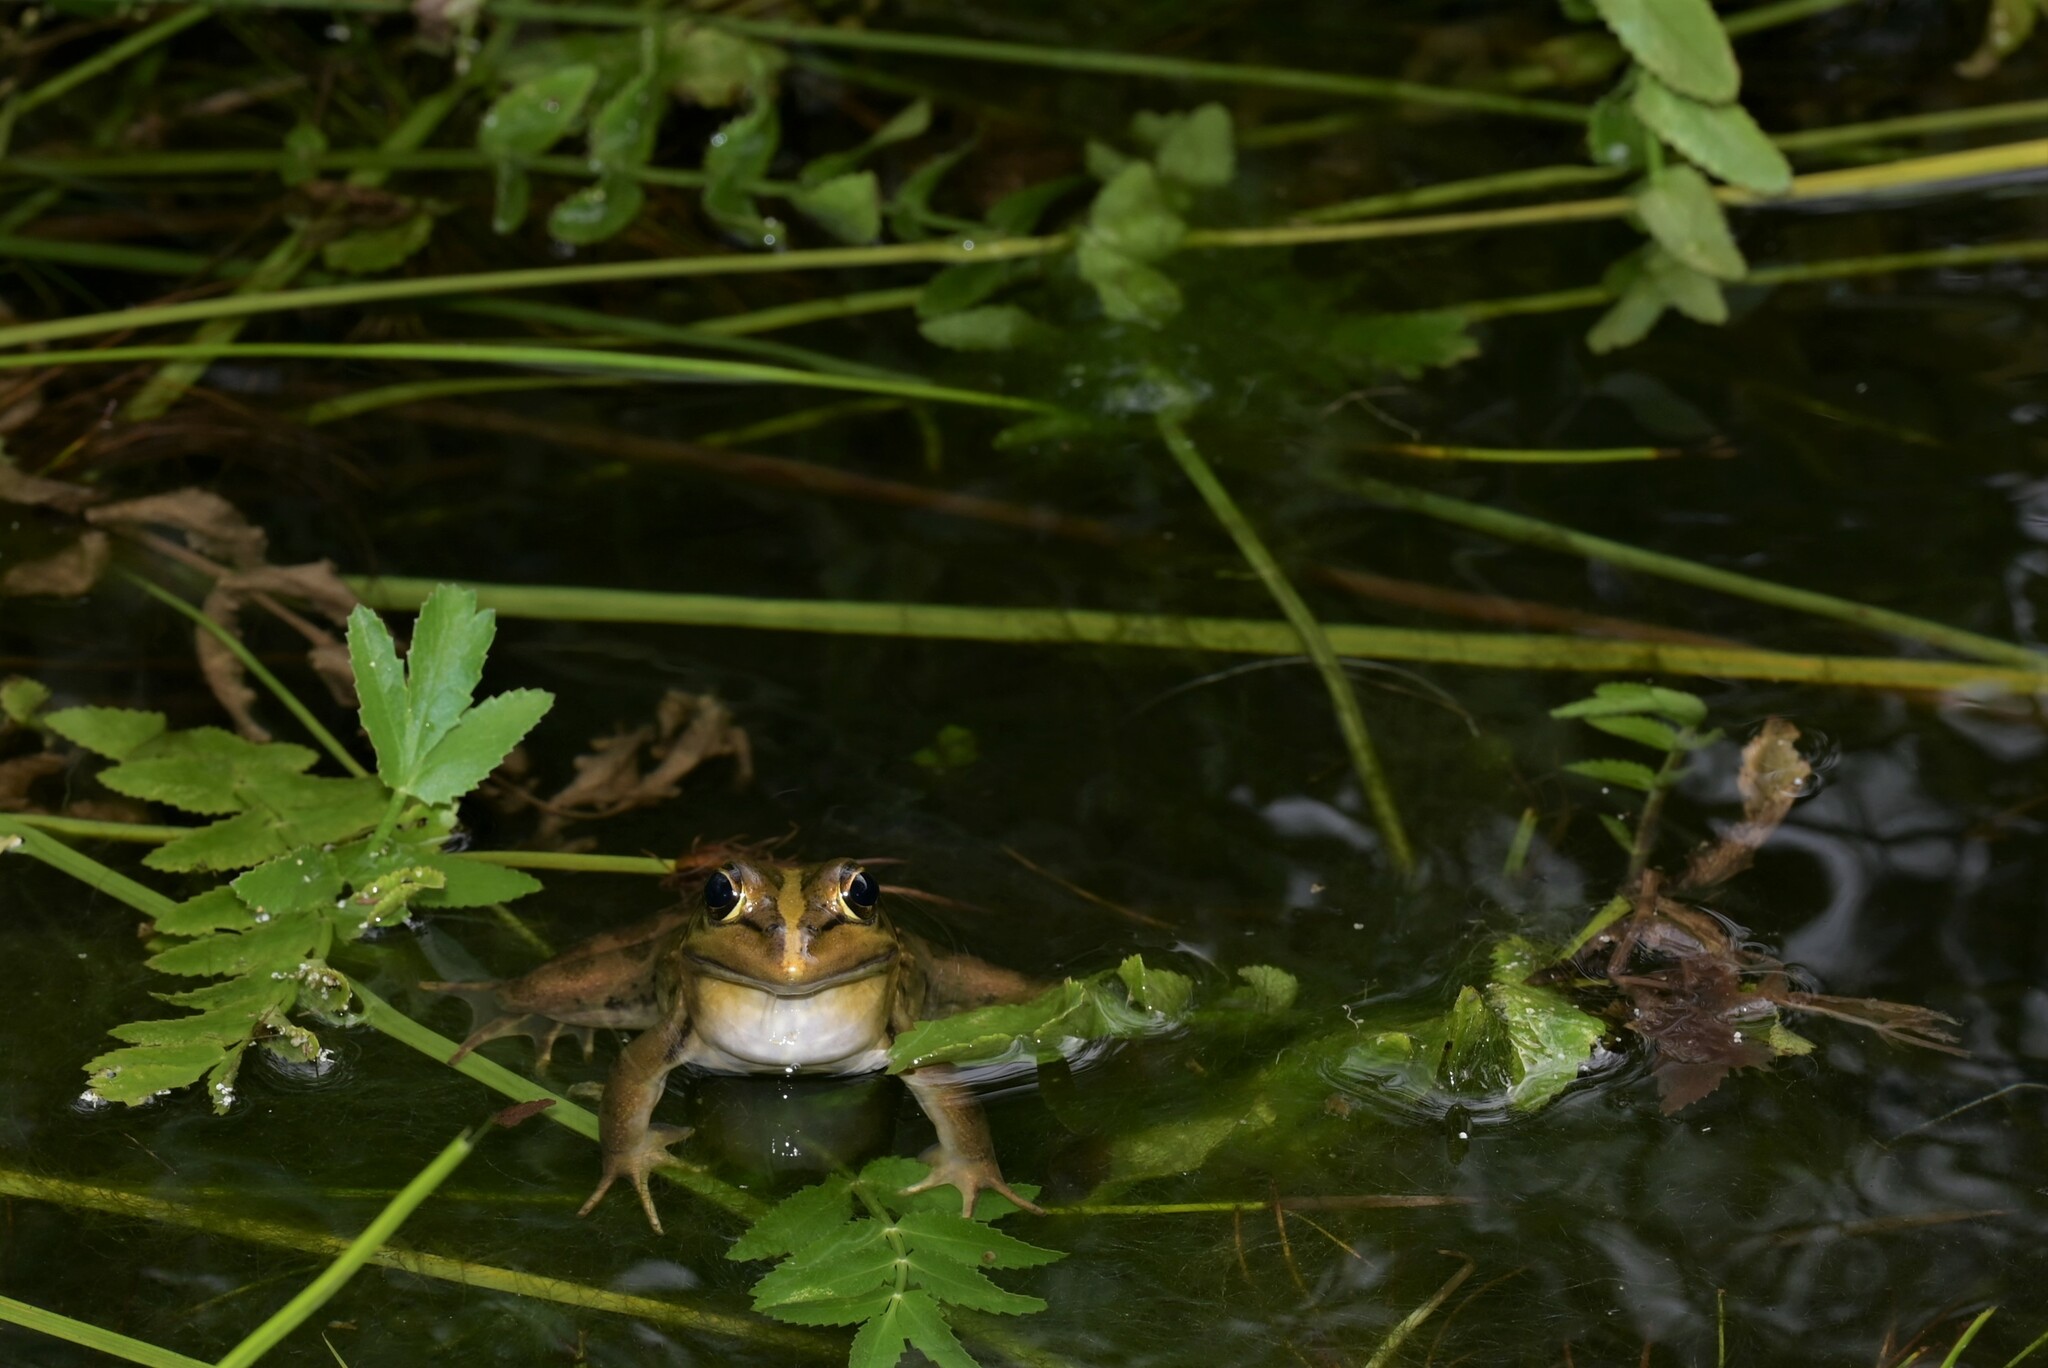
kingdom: Animalia
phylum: Chordata
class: Amphibia
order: Anura
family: Pyxicephalidae
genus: Amietia
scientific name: Amietia fuscigula
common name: Cape rana
